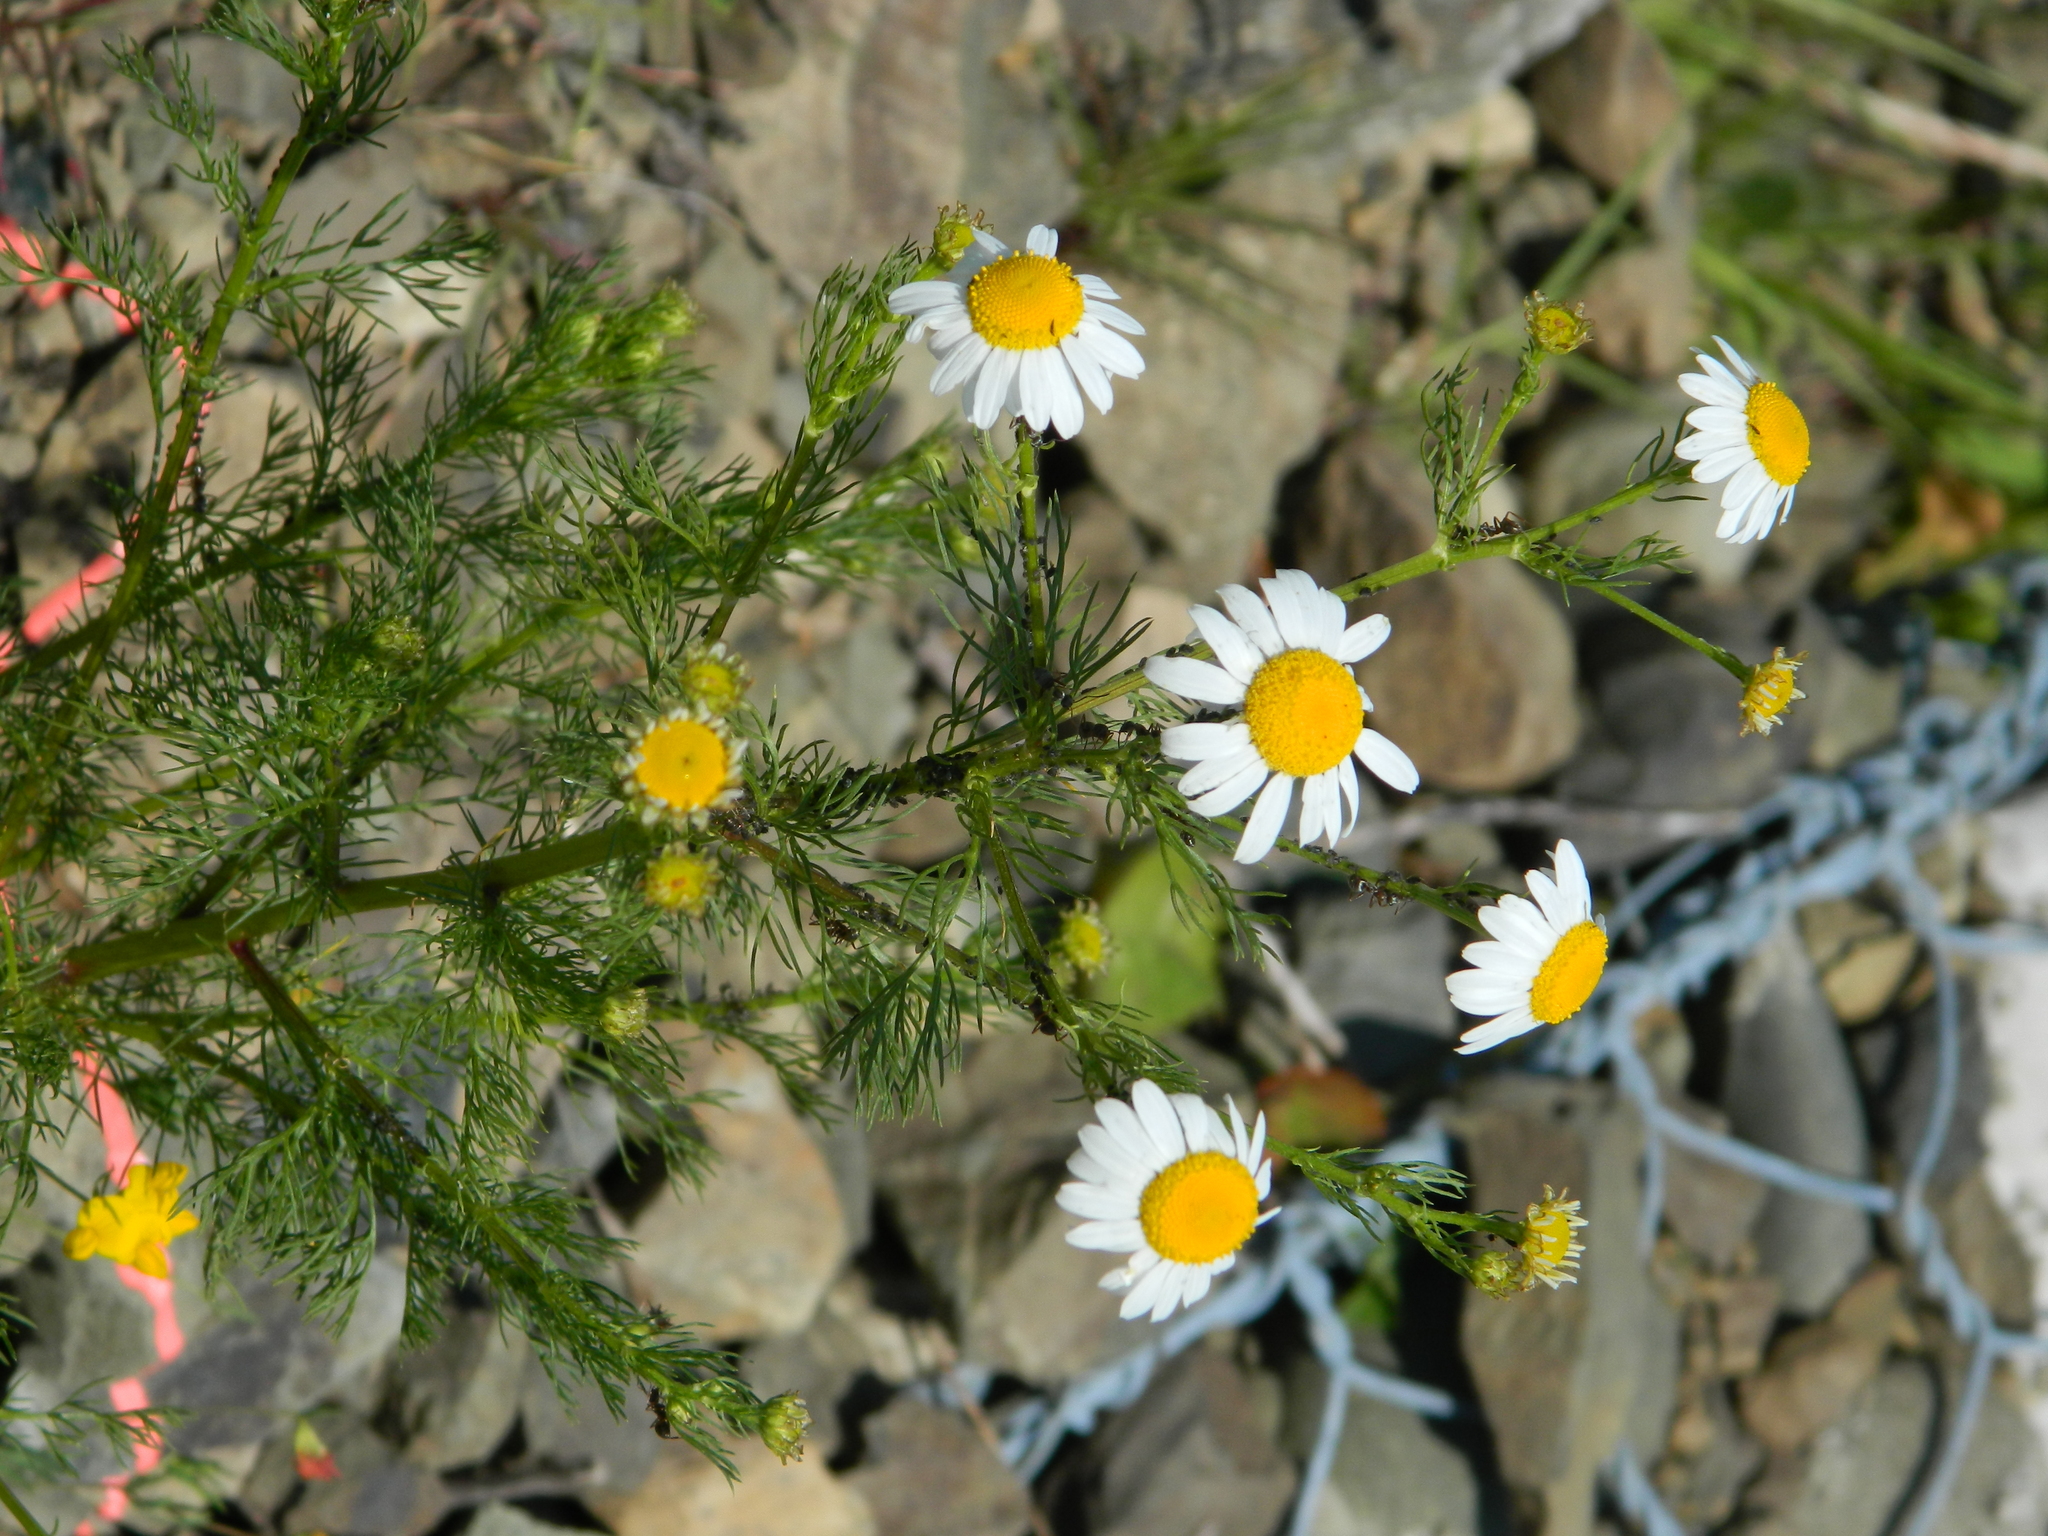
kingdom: Plantae
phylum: Tracheophyta
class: Magnoliopsida
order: Asterales
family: Asteraceae
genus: Tripleurospermum
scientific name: Tripleurospermum inodorum
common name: Scentless mayweed
